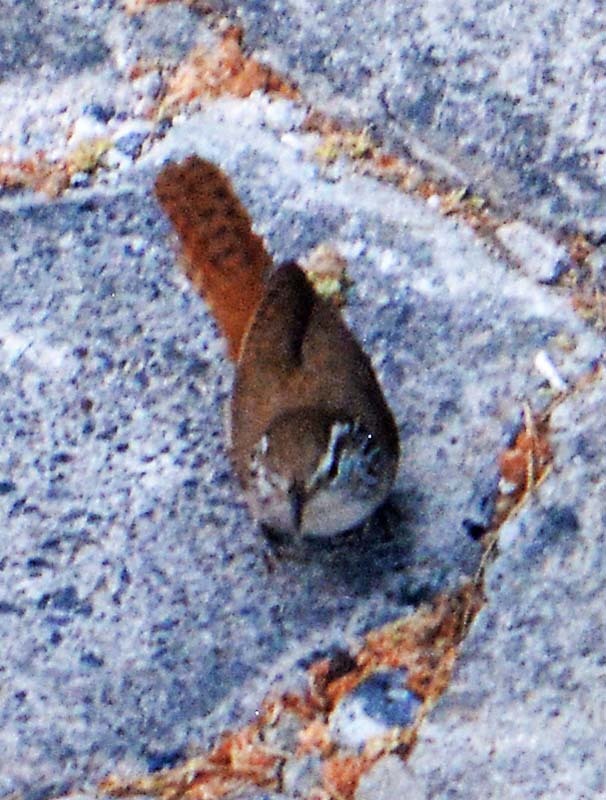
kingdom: Animalia
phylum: Chordata
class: Aves
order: Passeriformes
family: Troglodytidae
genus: Thryophilus
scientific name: Thryophilus sinaloa
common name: Sinaloa wren
